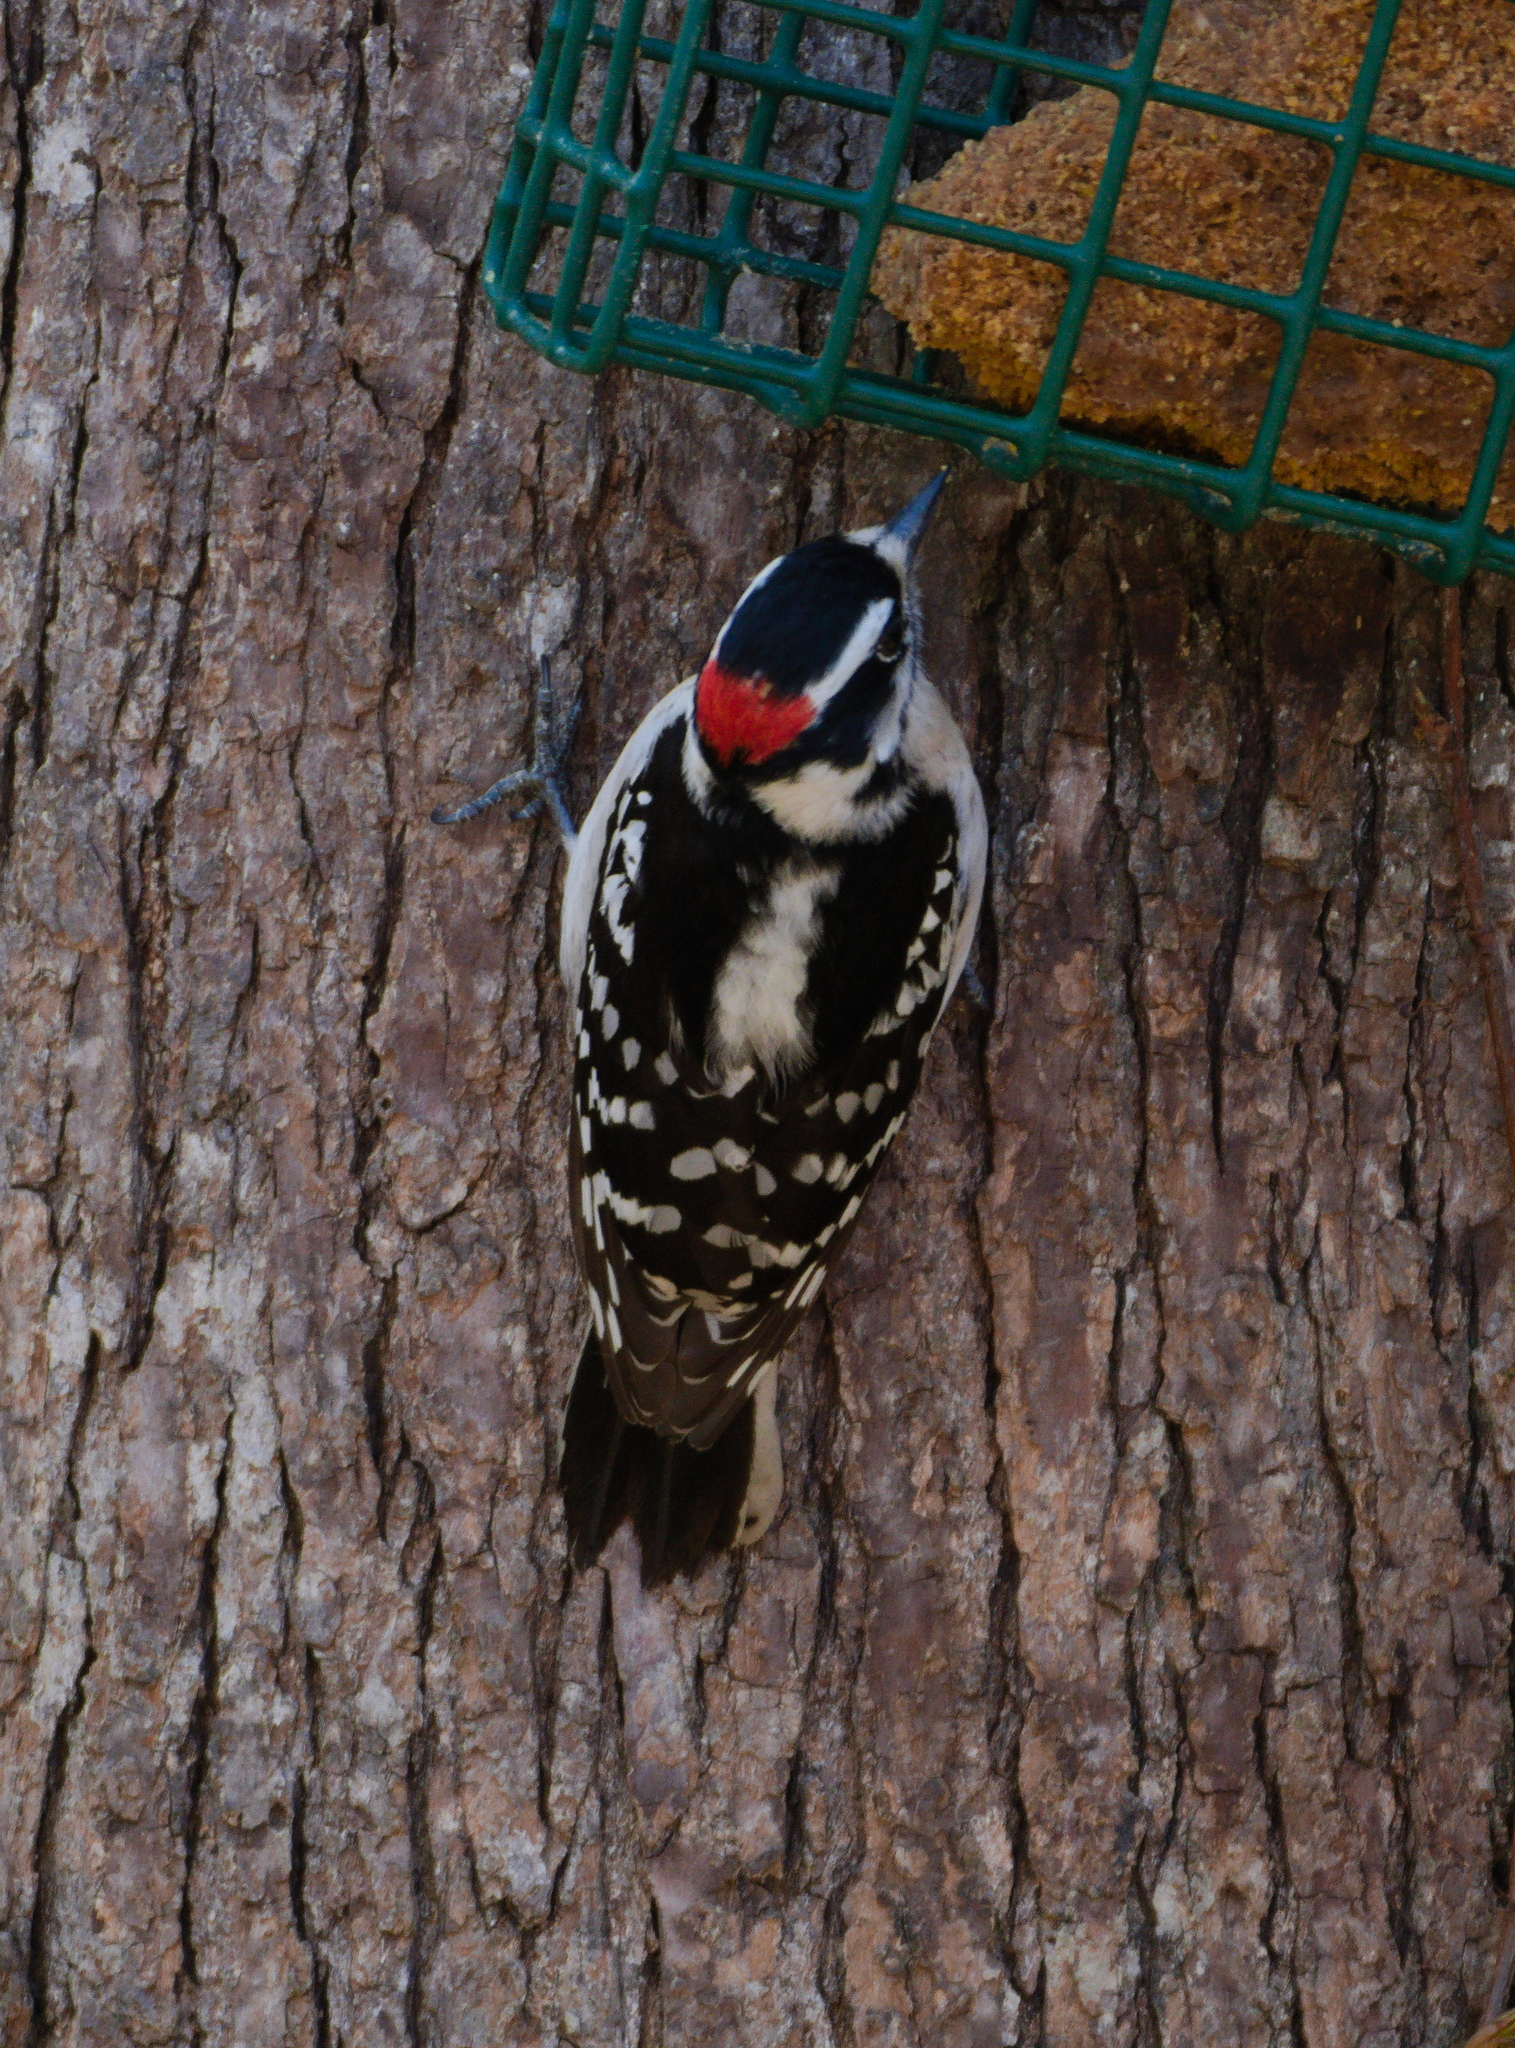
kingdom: Animalia
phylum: Chordata
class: Aves
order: Piciformes
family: Picidae
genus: Dryobates
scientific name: Dryobates pubescens
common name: Downy woodpecker
